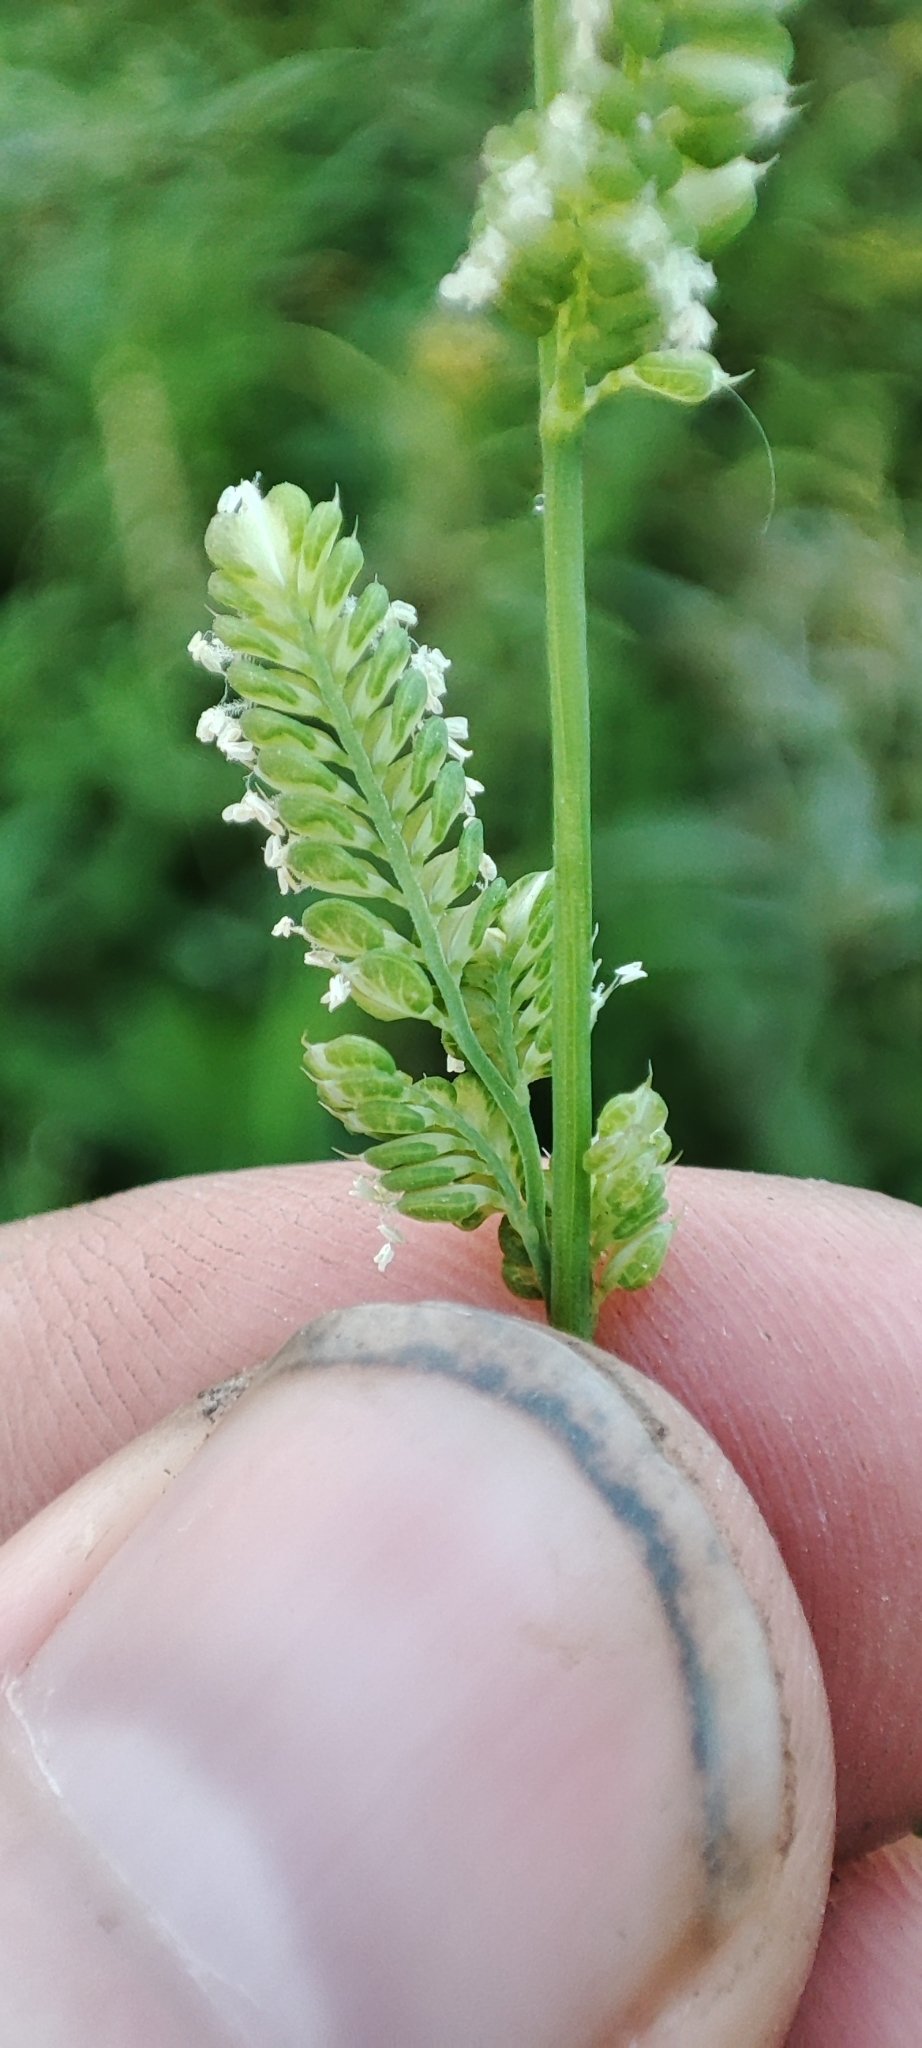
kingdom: Plantae
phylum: Tracheophyta
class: Liliopsida
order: Poales
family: Poaceae
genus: Beckmannia
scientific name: Beckmannia syzigachne
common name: American slough-grass
